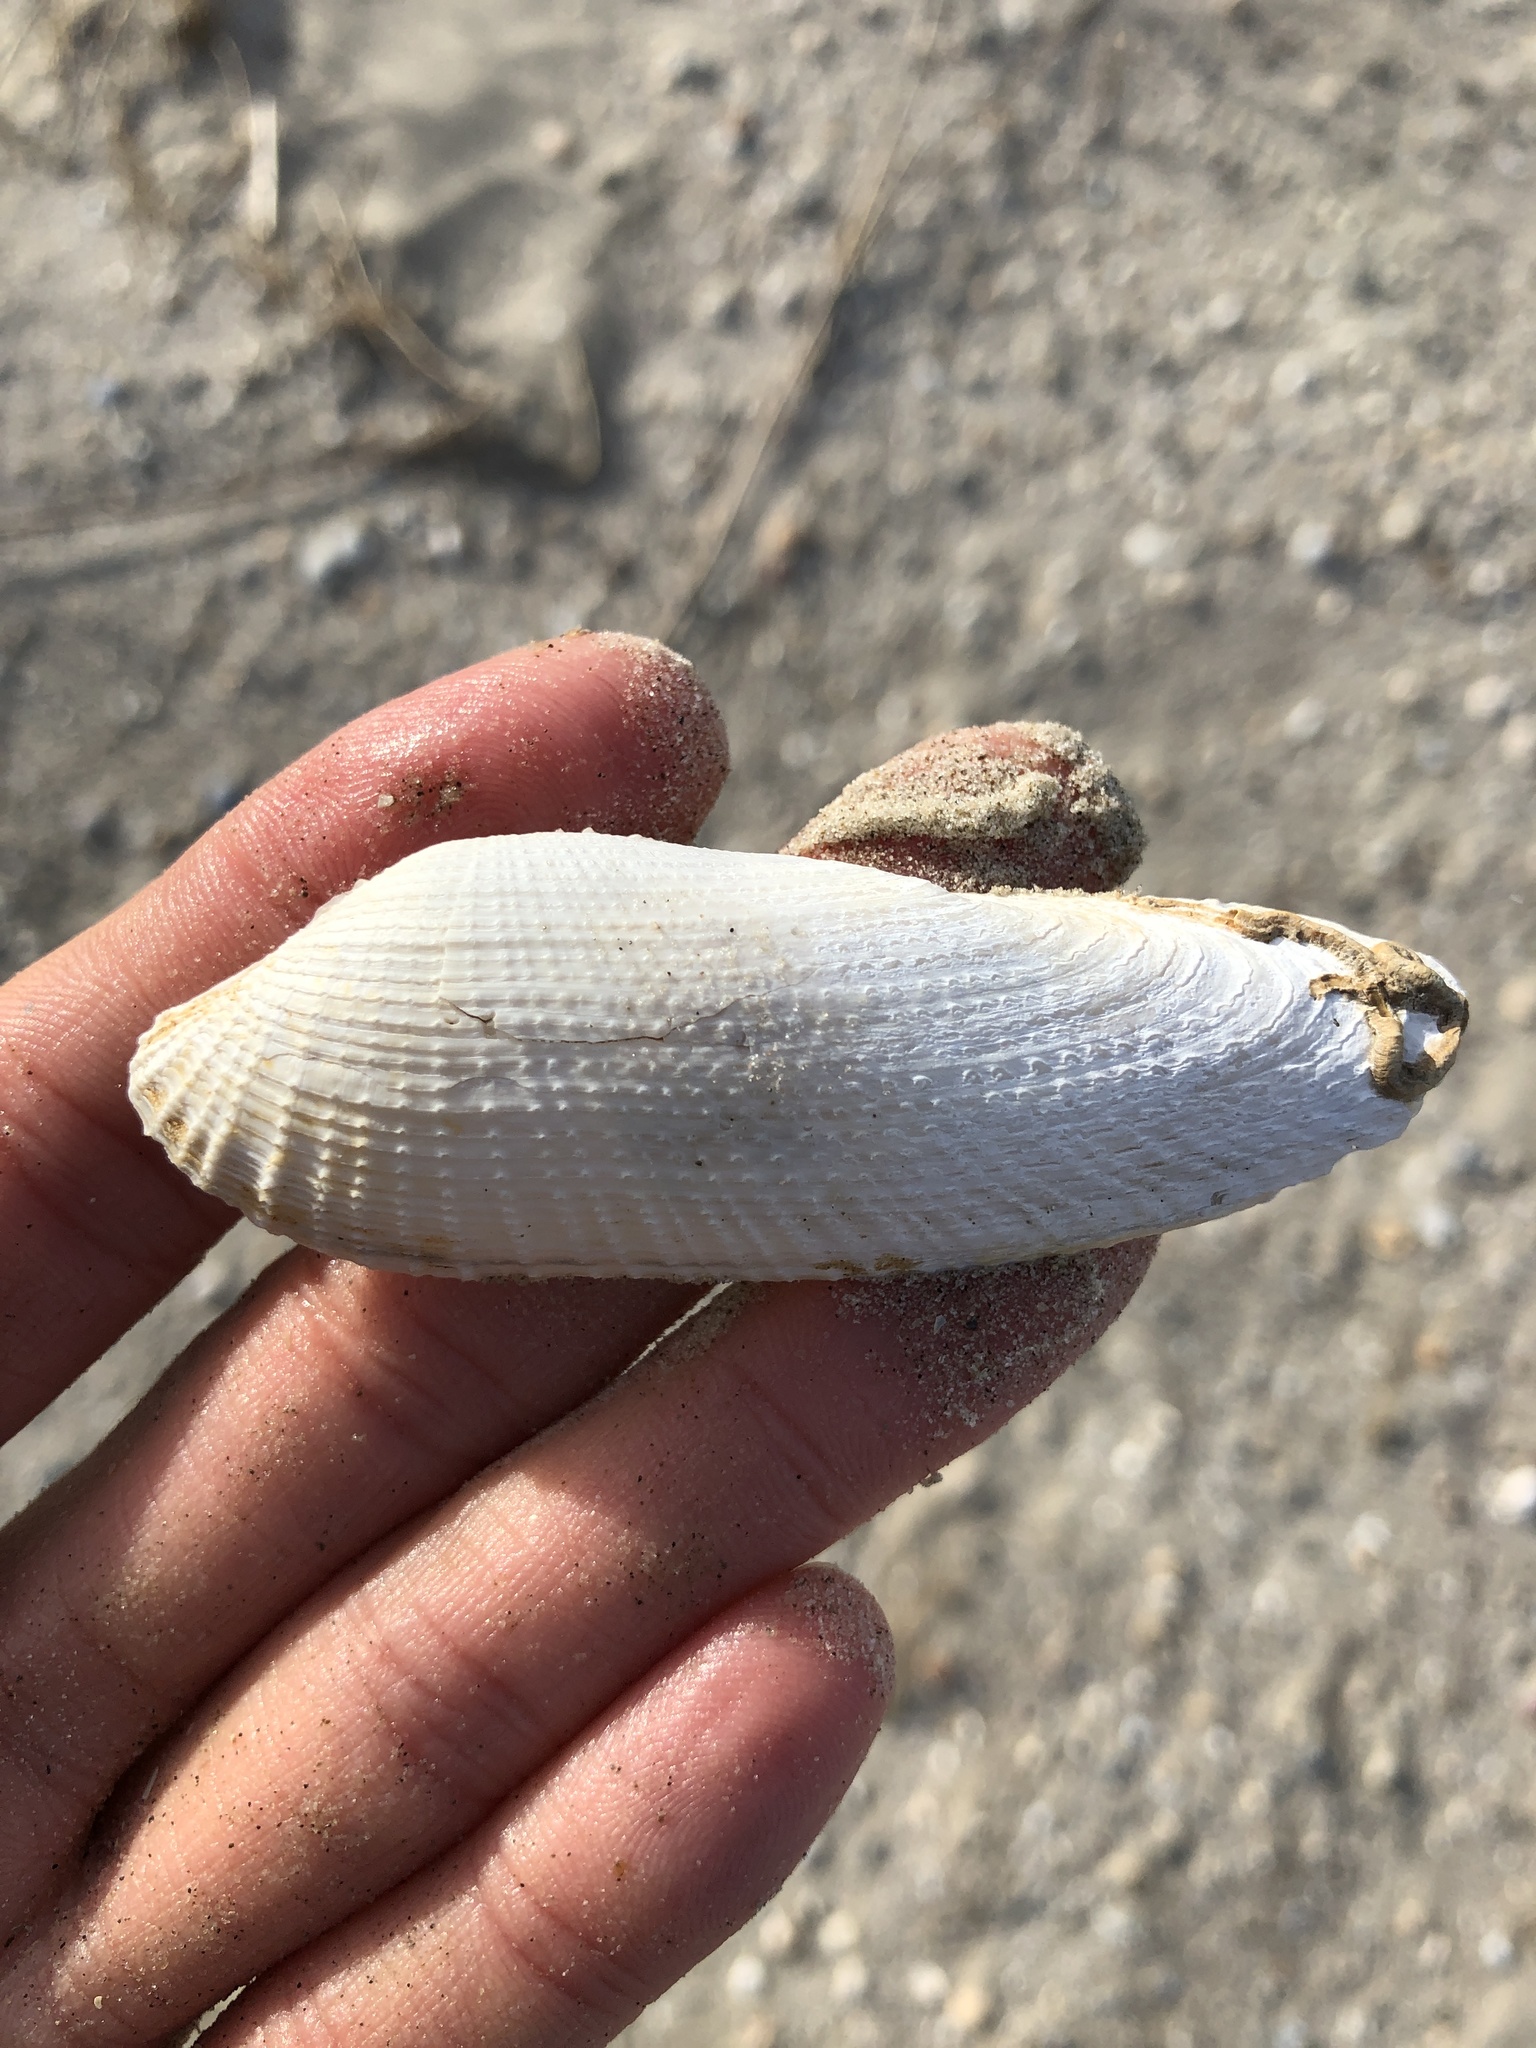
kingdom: Animalia
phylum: Mollusca
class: Bivalvia
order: Myida
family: Pholadidae
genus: Pholas
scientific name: Pholas campechiensis
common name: Campeche angel wing
